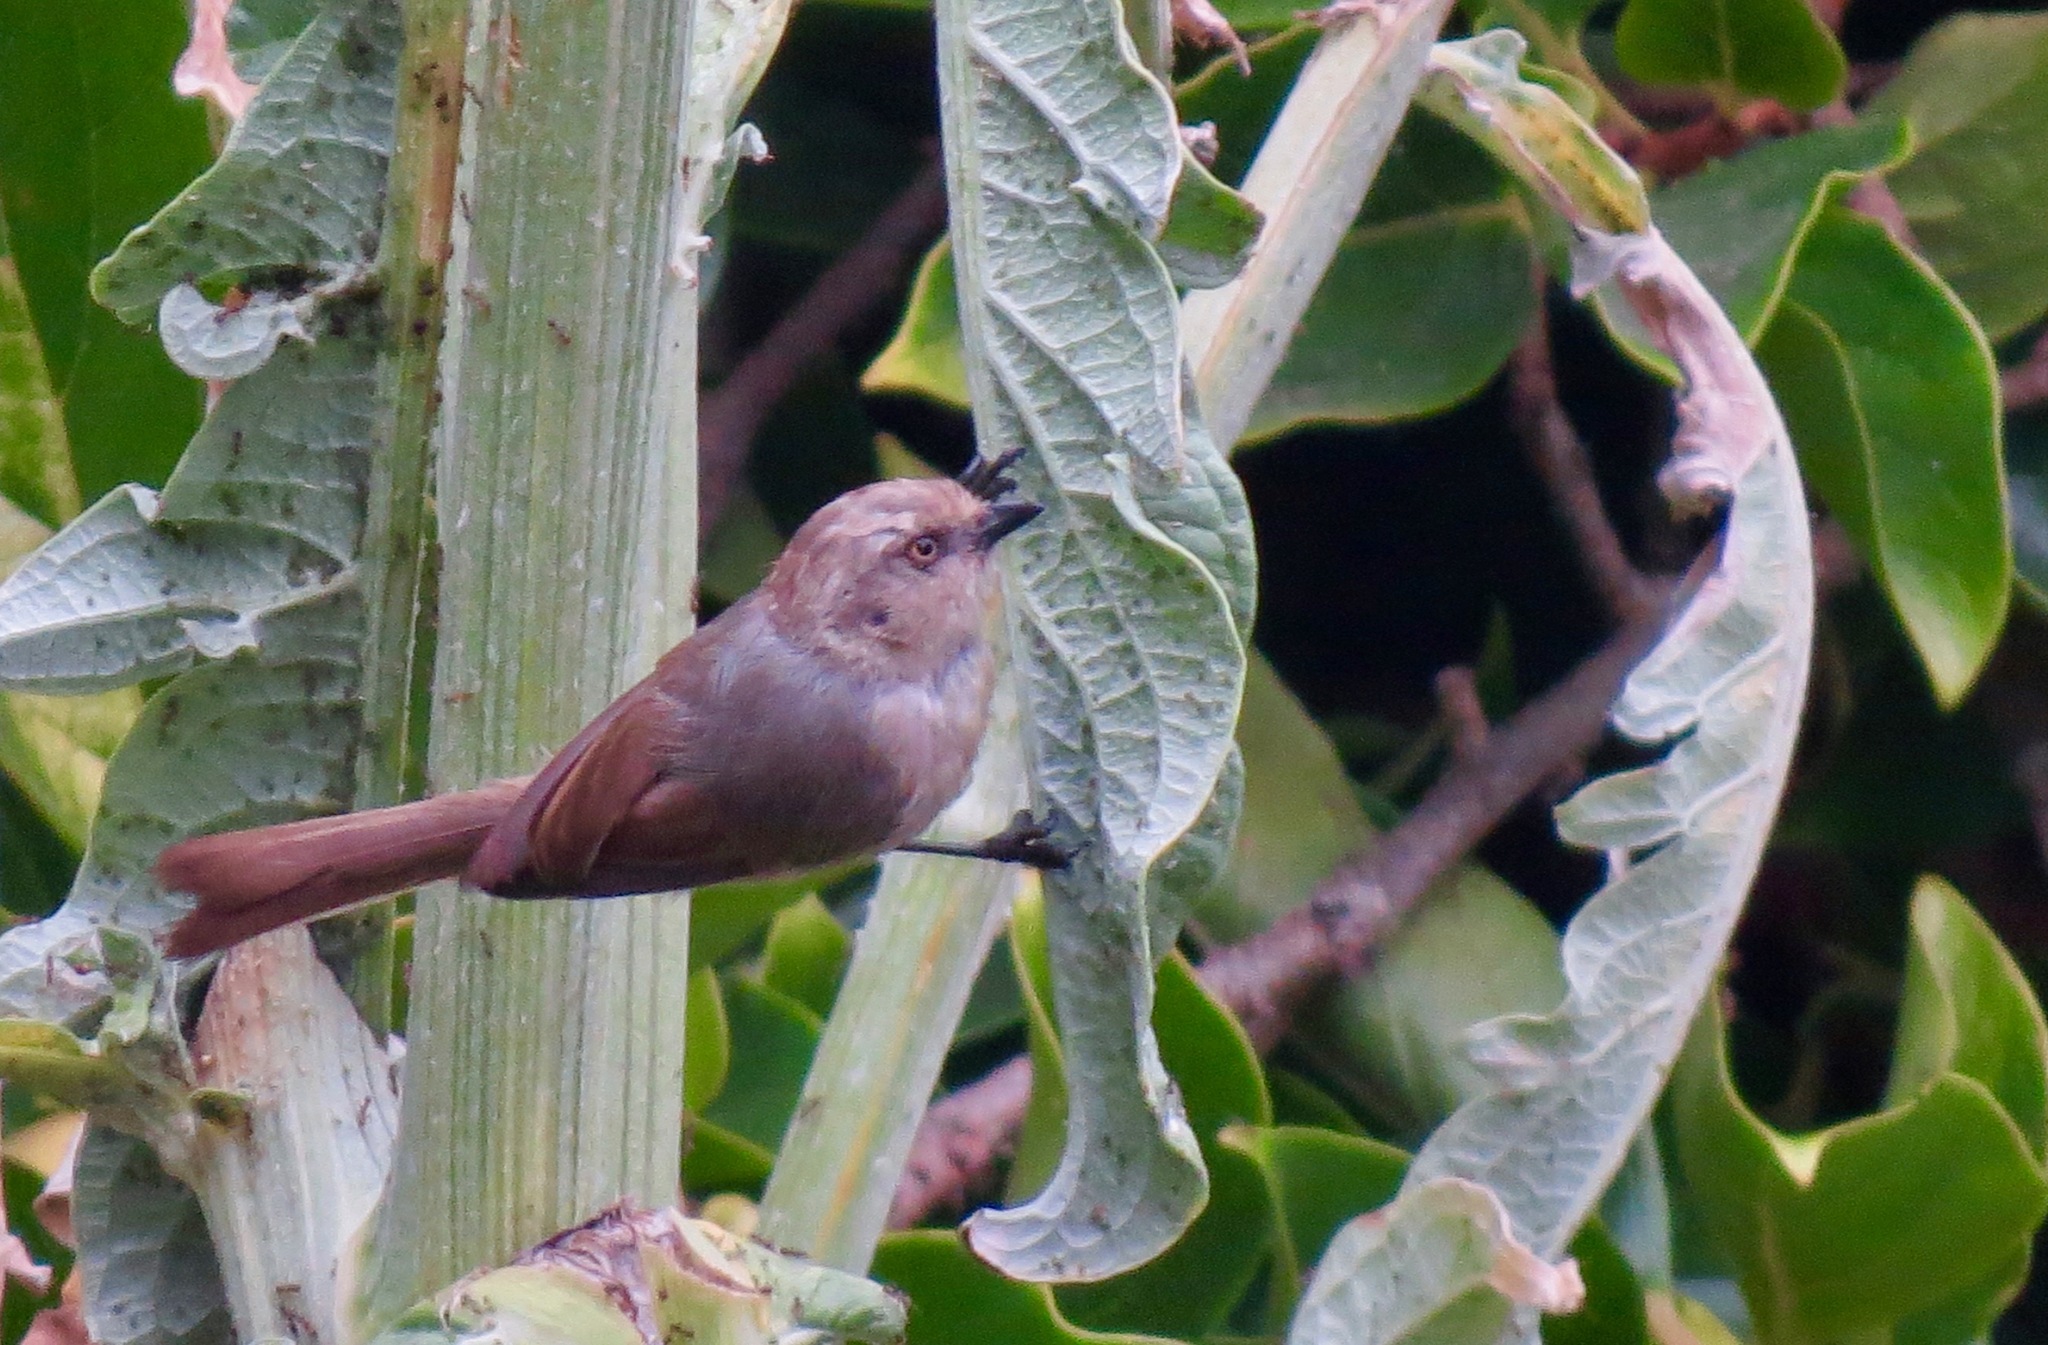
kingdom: Animalia
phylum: Chordata
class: Aves
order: Passeriformes
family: Aegithalidae
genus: Psaltriparus
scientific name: Psaltriparus minimus
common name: American bushtit
